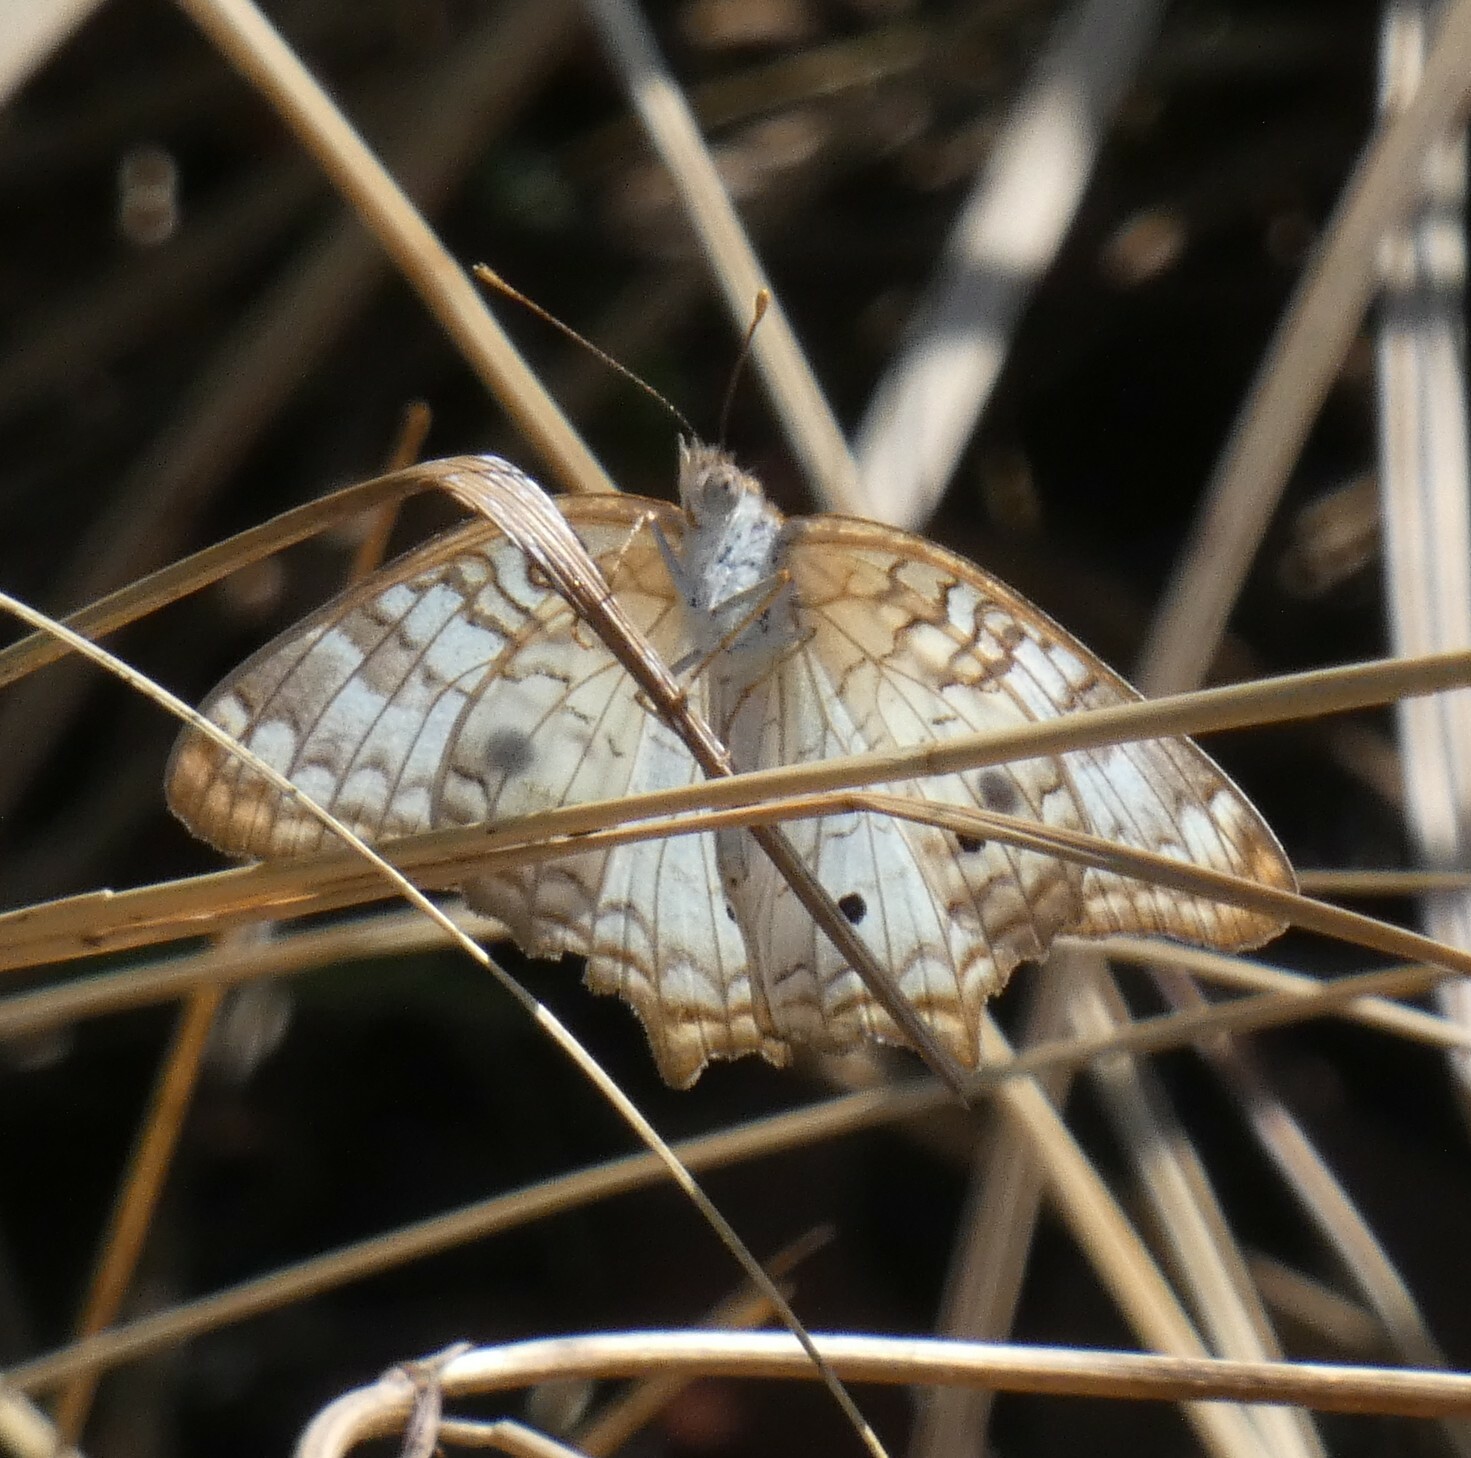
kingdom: Animalia
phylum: Arthropoda
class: Insecta
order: Lepidoptera
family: Nymphalidae
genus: Anartia
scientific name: Anartia jatrophae
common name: White peacock
